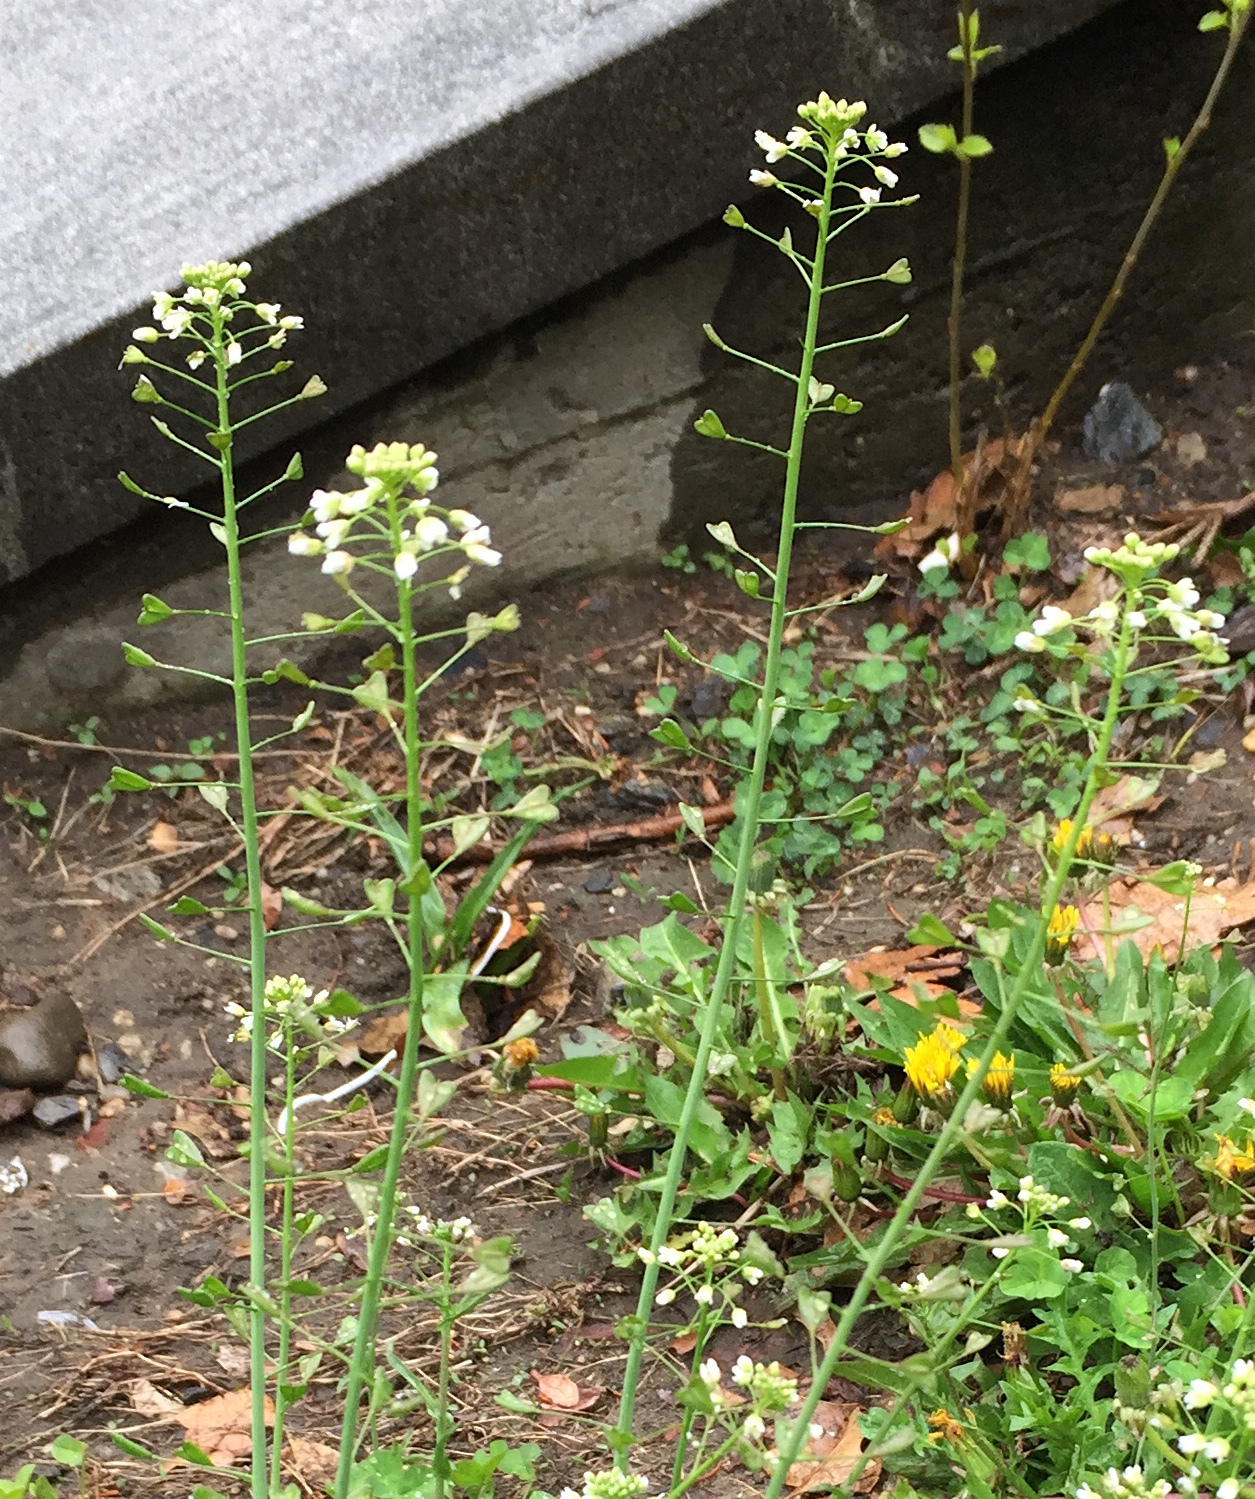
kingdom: Plantae
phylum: Tracheophyta
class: Magnoliopsida
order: Brassicales
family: Brassicaceae
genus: Capsella
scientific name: Capsella bursa-pastoris
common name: Shepherd's purse
